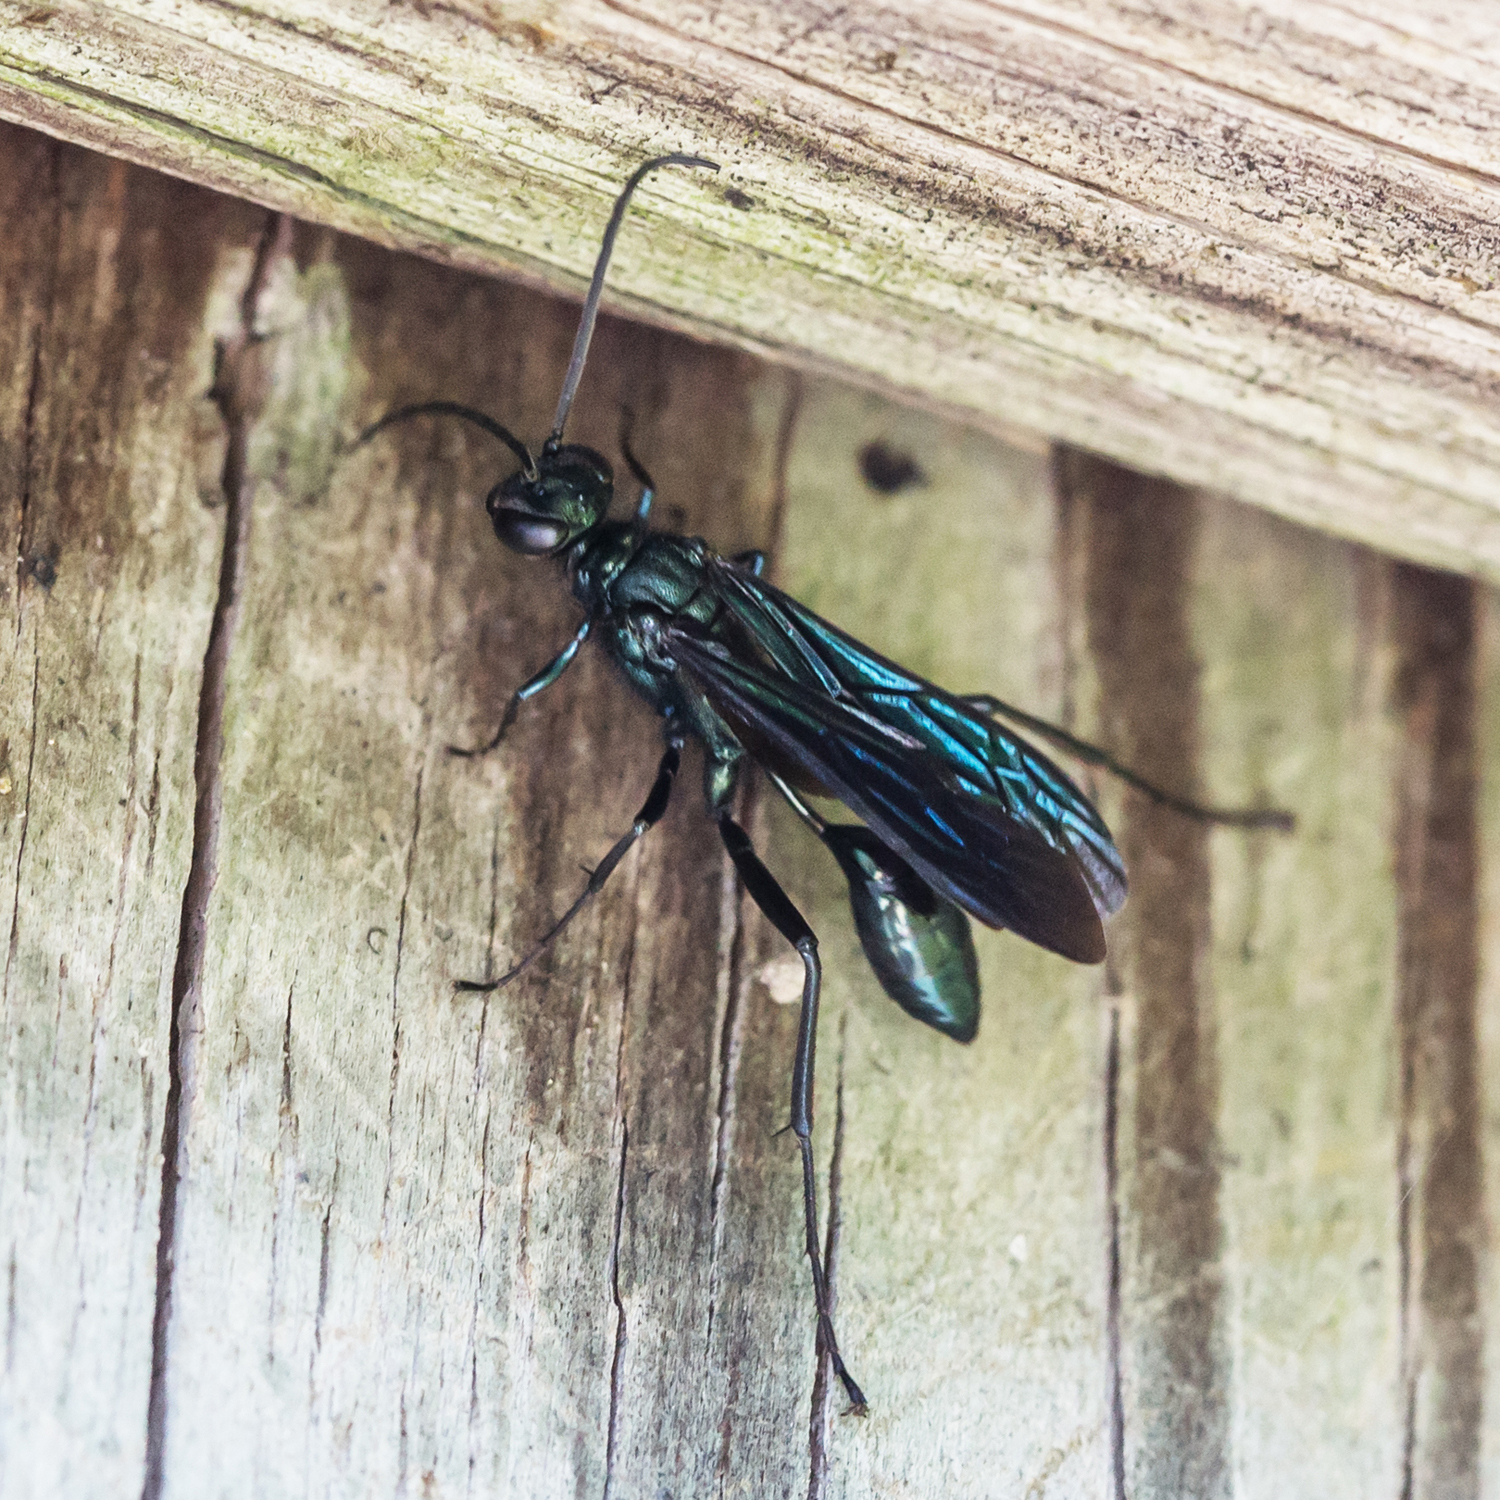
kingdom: Animalia
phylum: Arthropoda
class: Insecta
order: Hymenoptera
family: Sphecidae
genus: Chalybion
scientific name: Chalybion californicum
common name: Mud dauber
